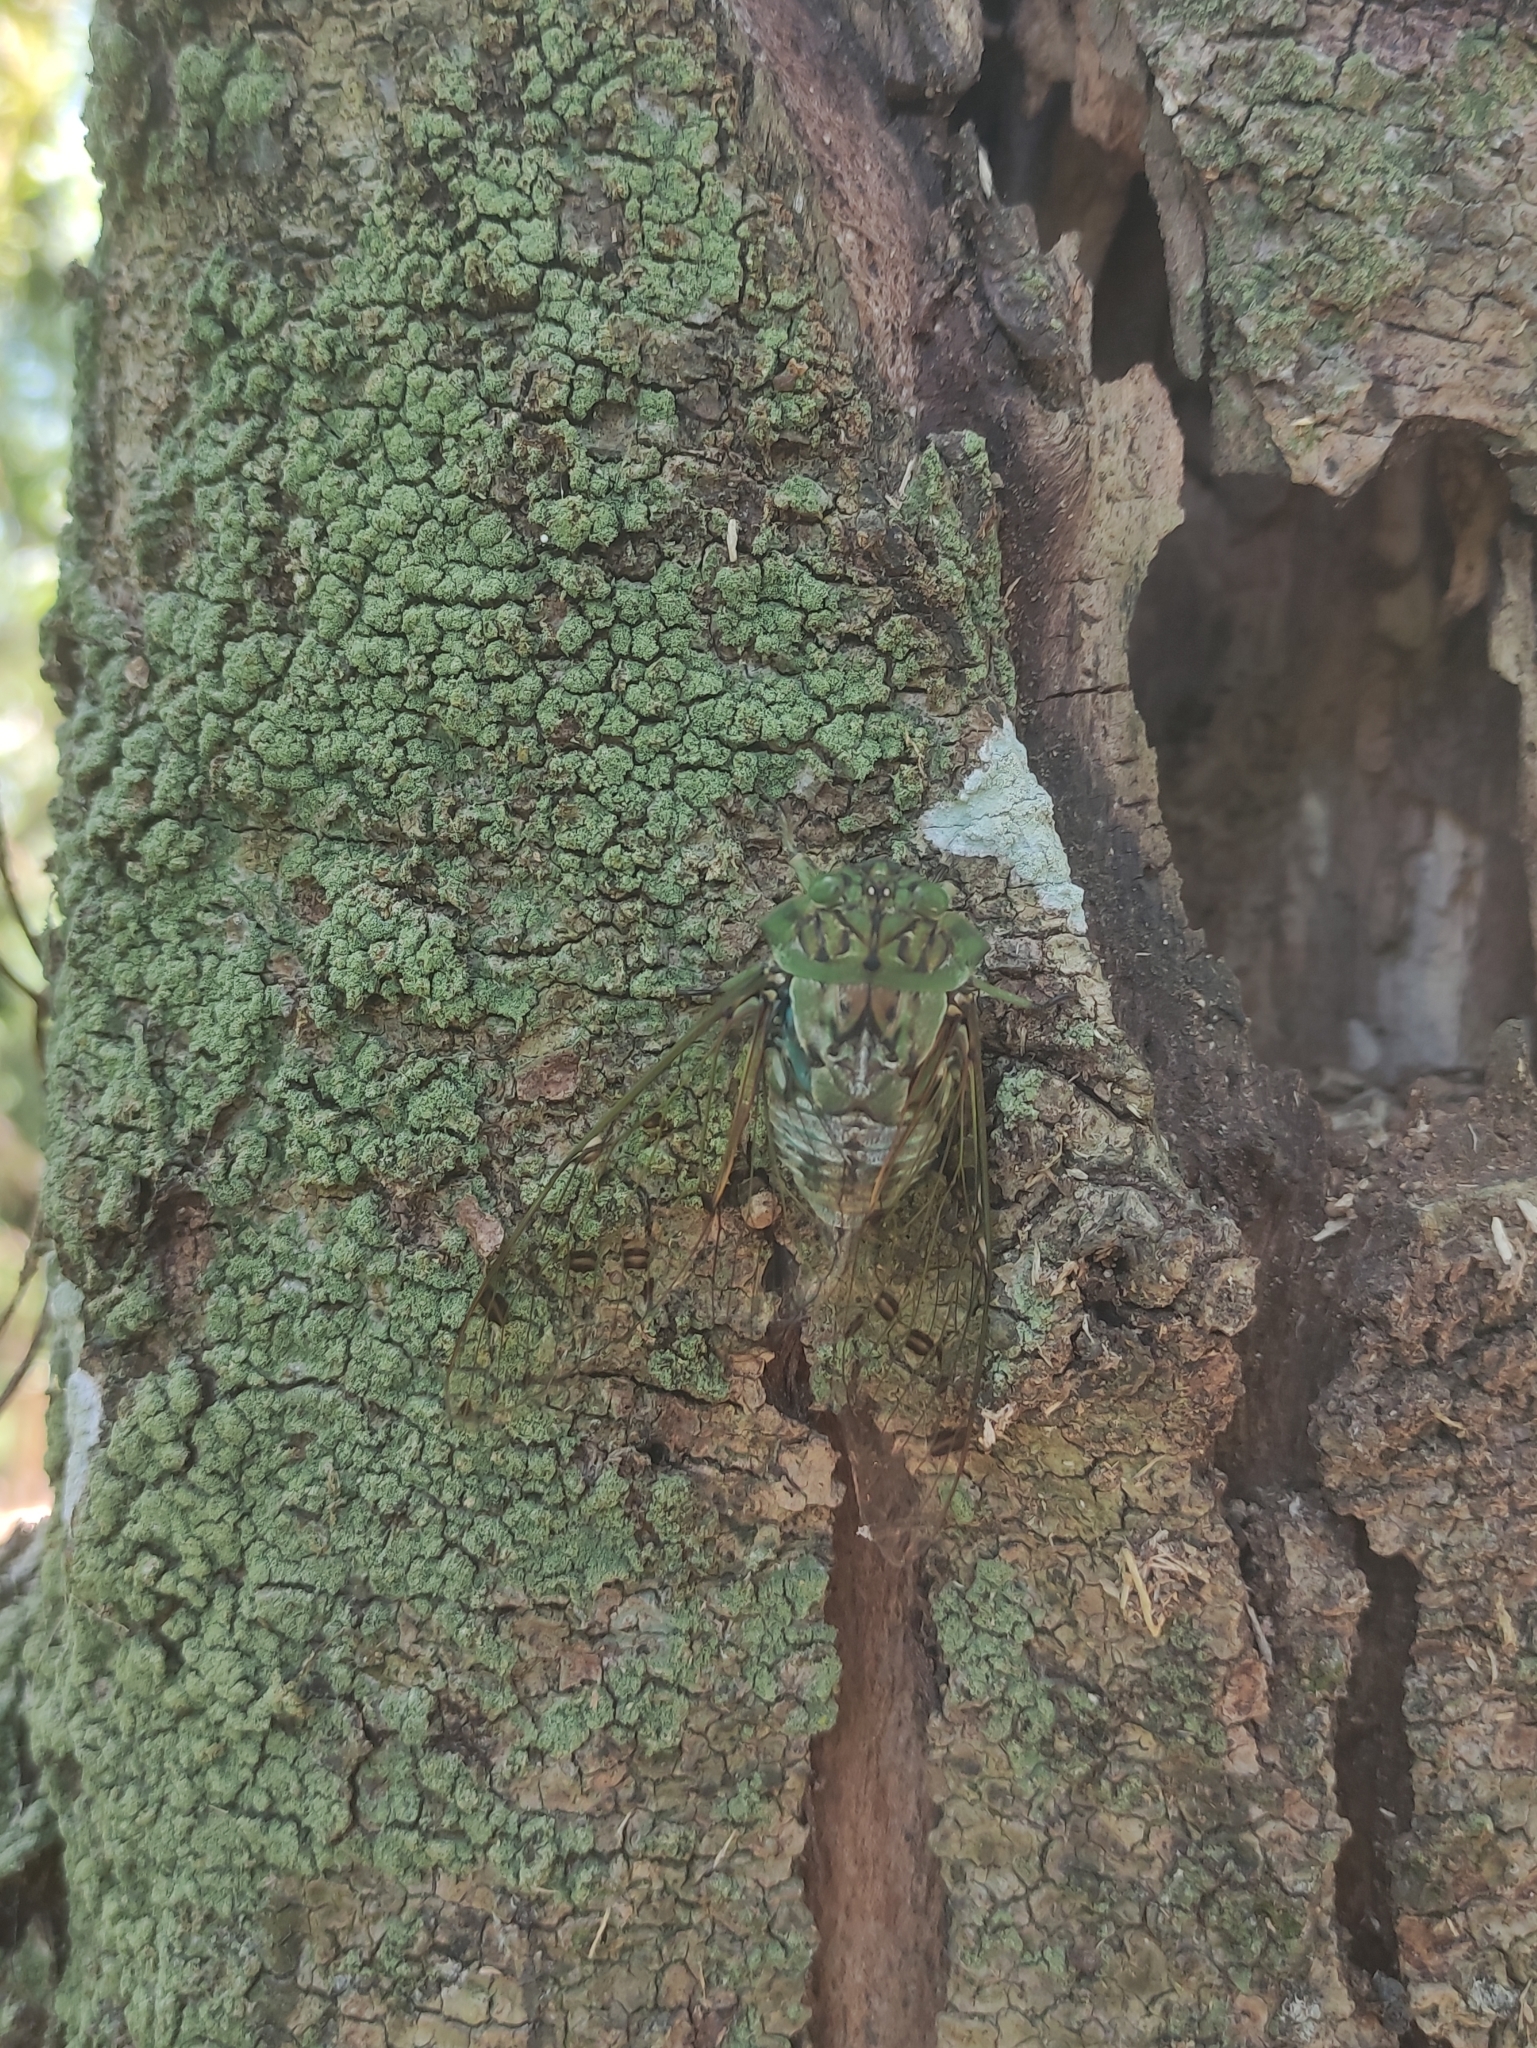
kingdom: Animalia
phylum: Arthropoda
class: Insecta
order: Hemiptera
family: Cicadidae
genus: Zammara
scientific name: Zammara tympanum
